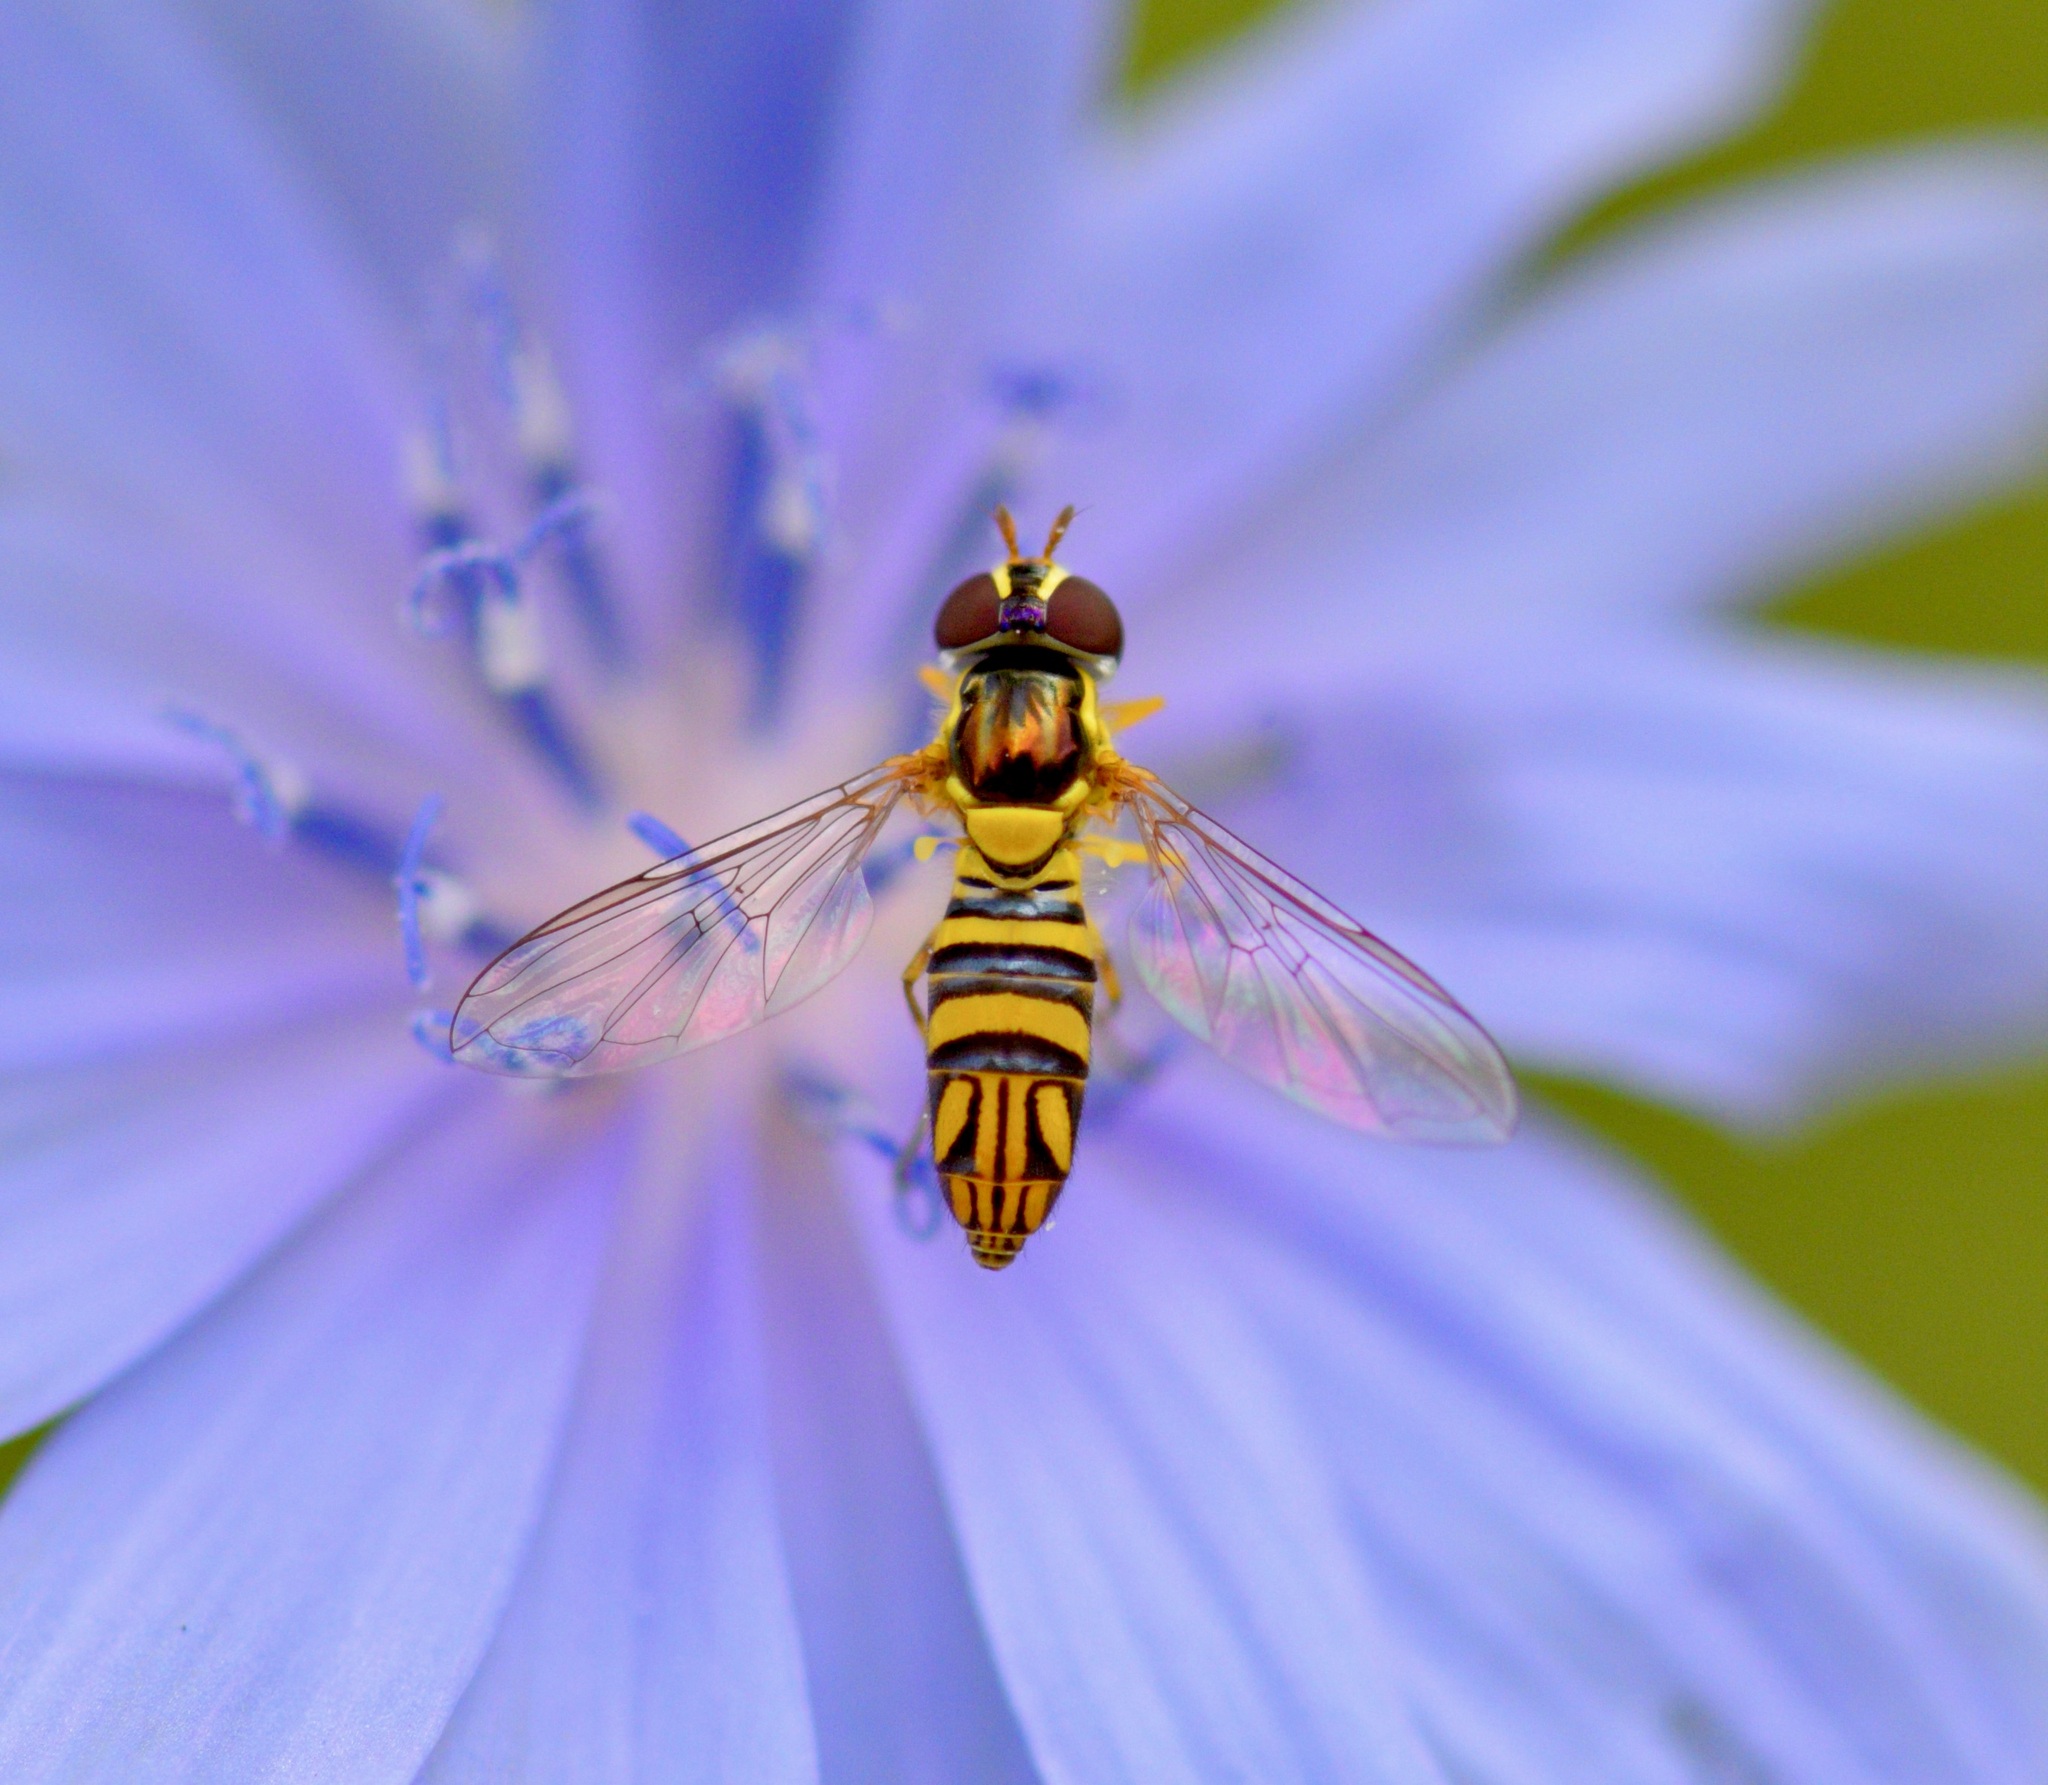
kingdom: Animalia
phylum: Arthropoda
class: Insecta
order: Diptera
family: Syrphidae
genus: Allograpta
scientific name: Allograpta obliqua
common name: Common oblique syrphid
